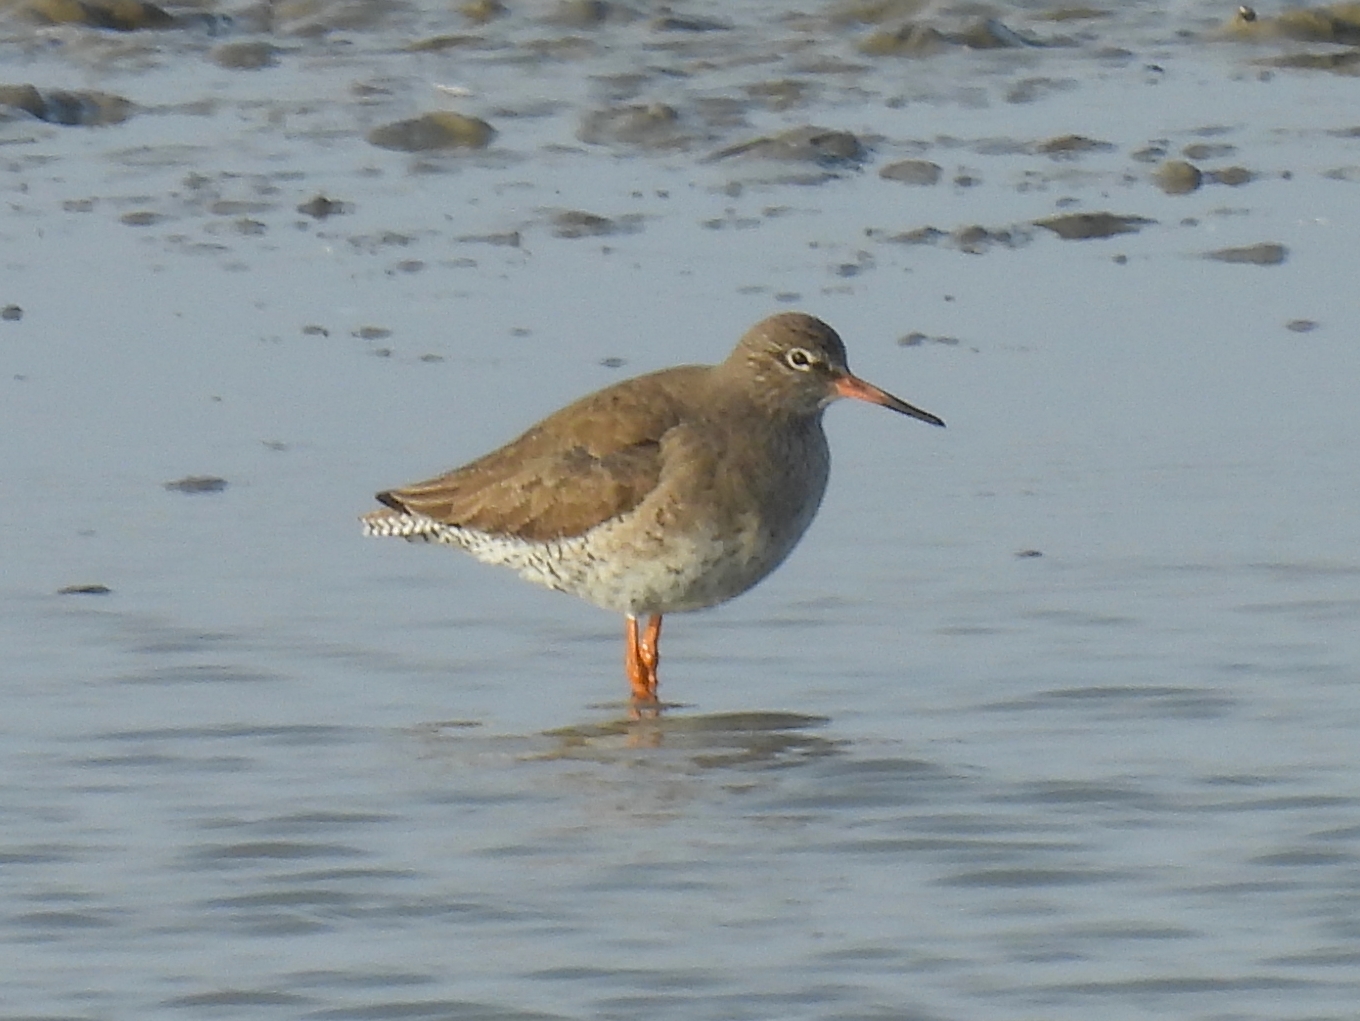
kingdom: Animalia
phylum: Chordata
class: Aves
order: Charadriiformes
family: Scolopacidae
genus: Tringa
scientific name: Tringa totanus
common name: Common redshank
